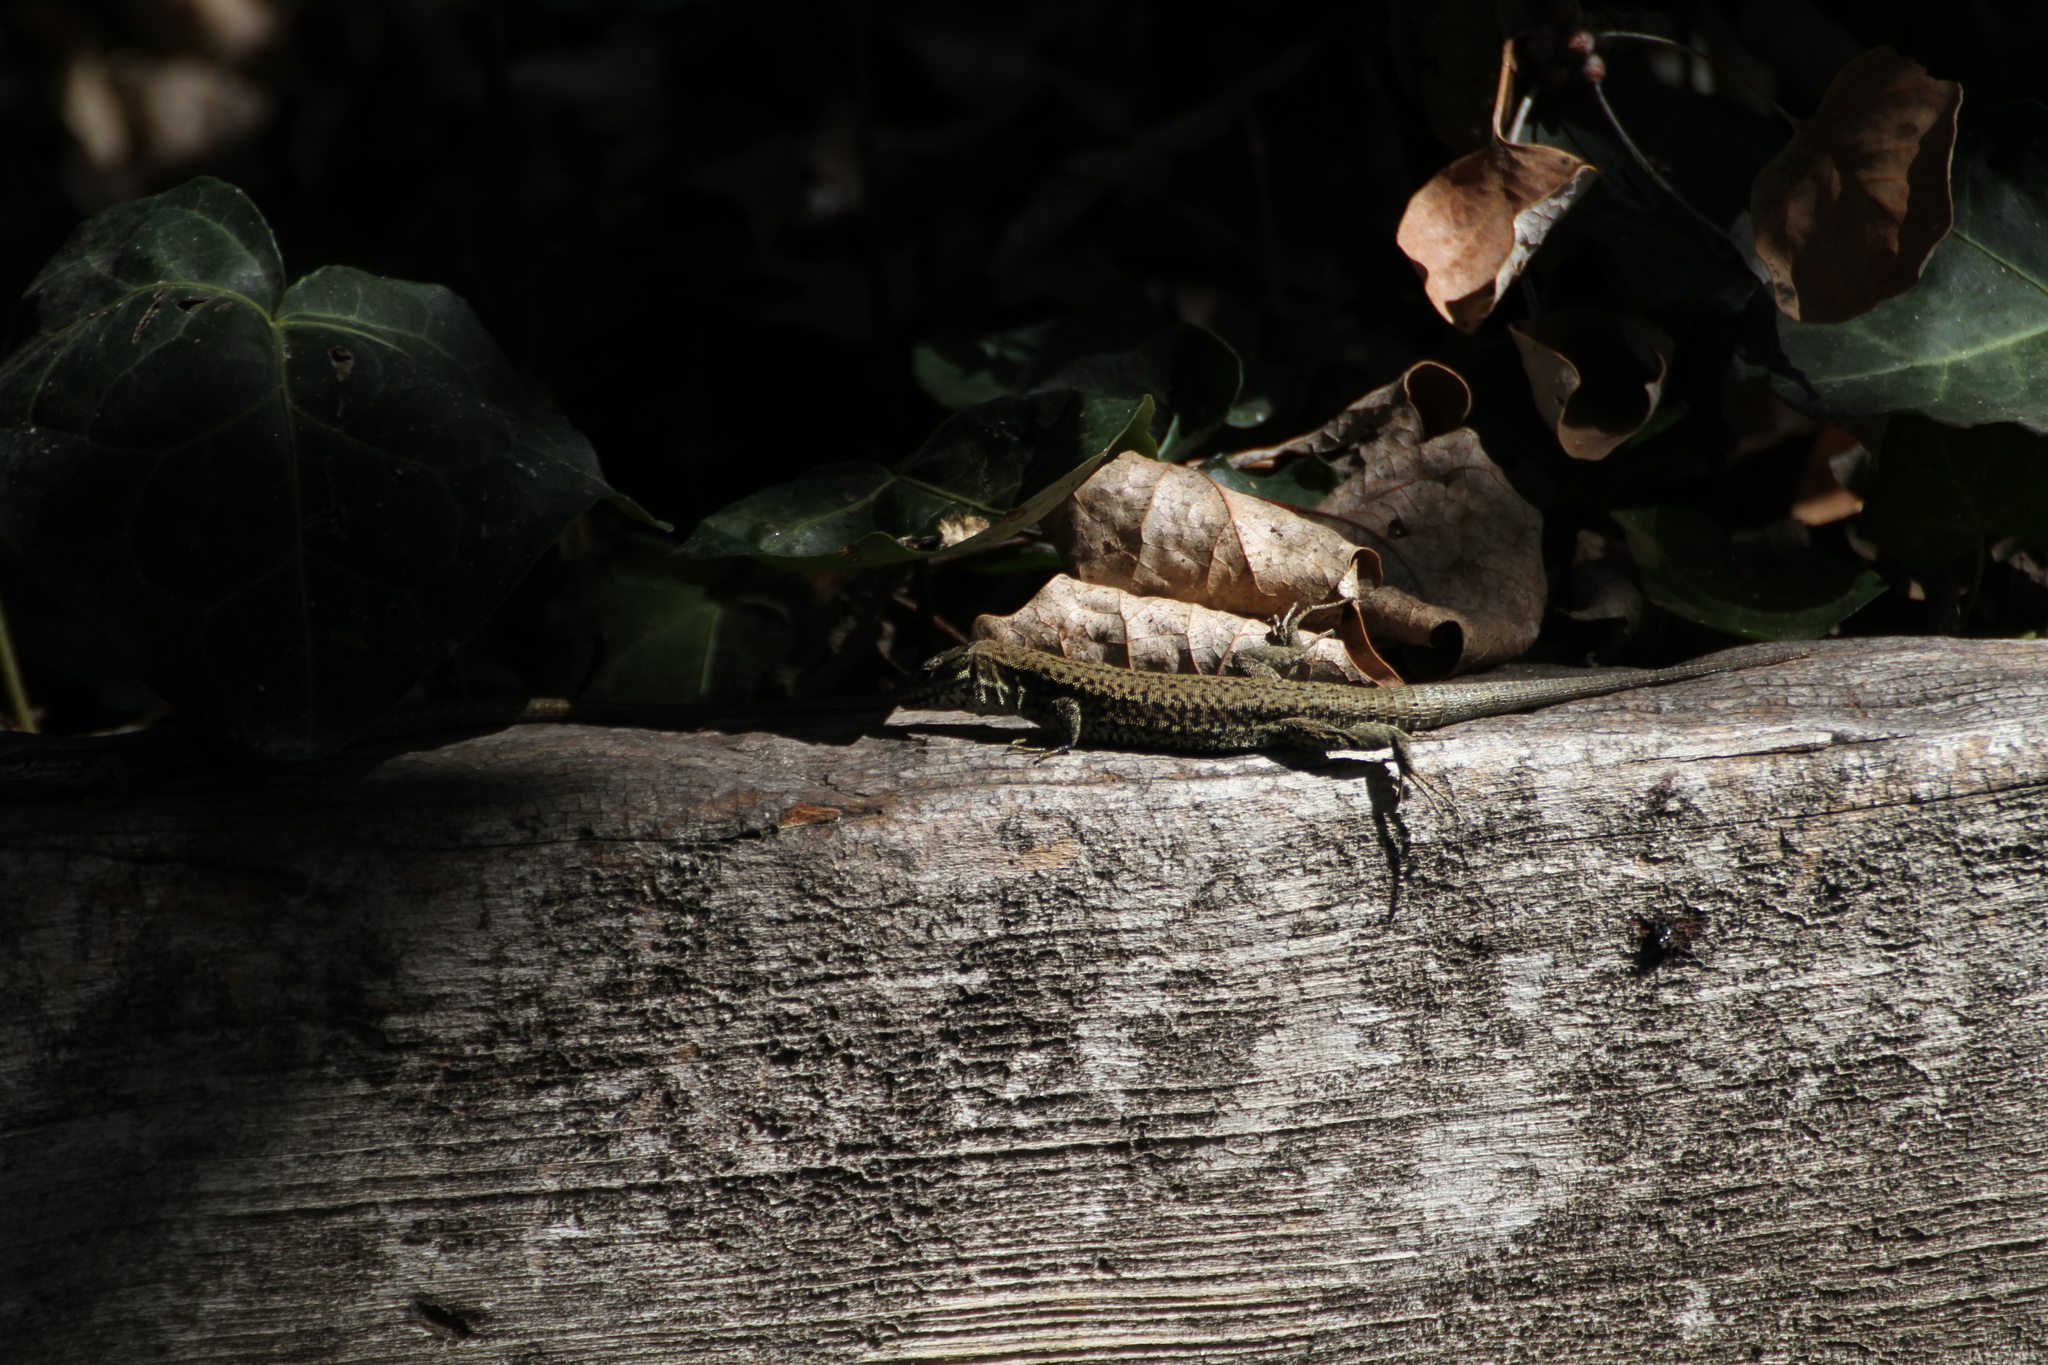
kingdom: Animalia
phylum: Chordata
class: Squamata
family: Lacertidae
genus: Podarcis
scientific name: Podarcis muralis
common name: Common wall lizard
